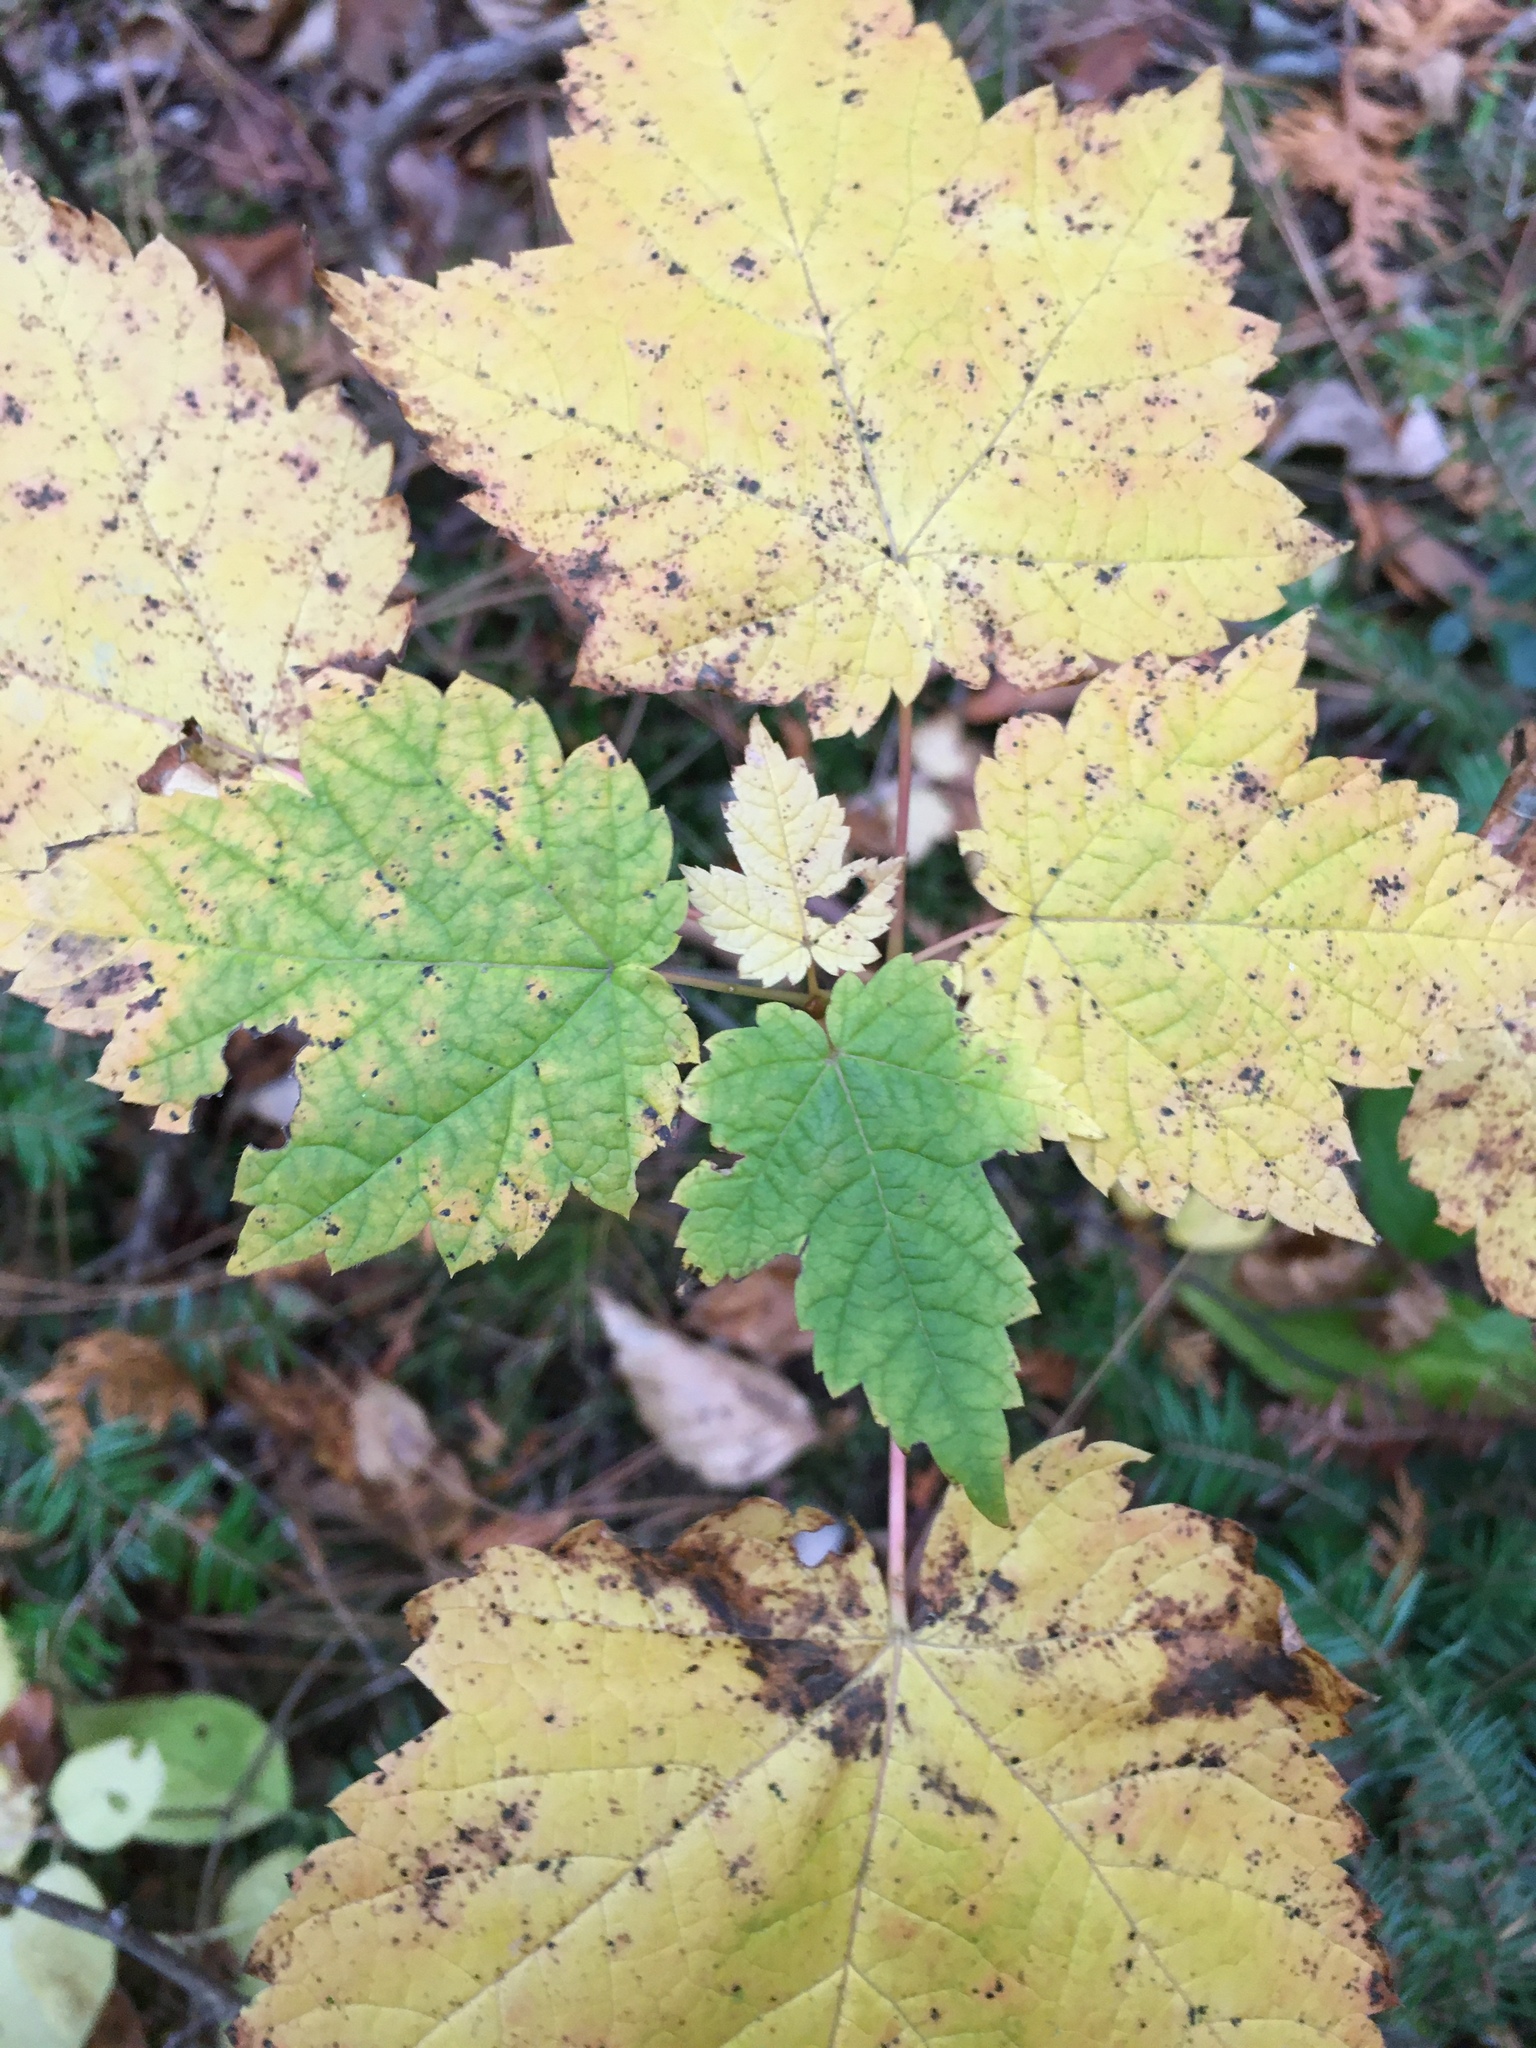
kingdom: Plantae
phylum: Tracheophyta
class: Magnoliopsida
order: Sapindales
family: Sapindaceae
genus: Acer
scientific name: Acer spicatum
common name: Mountain maple
